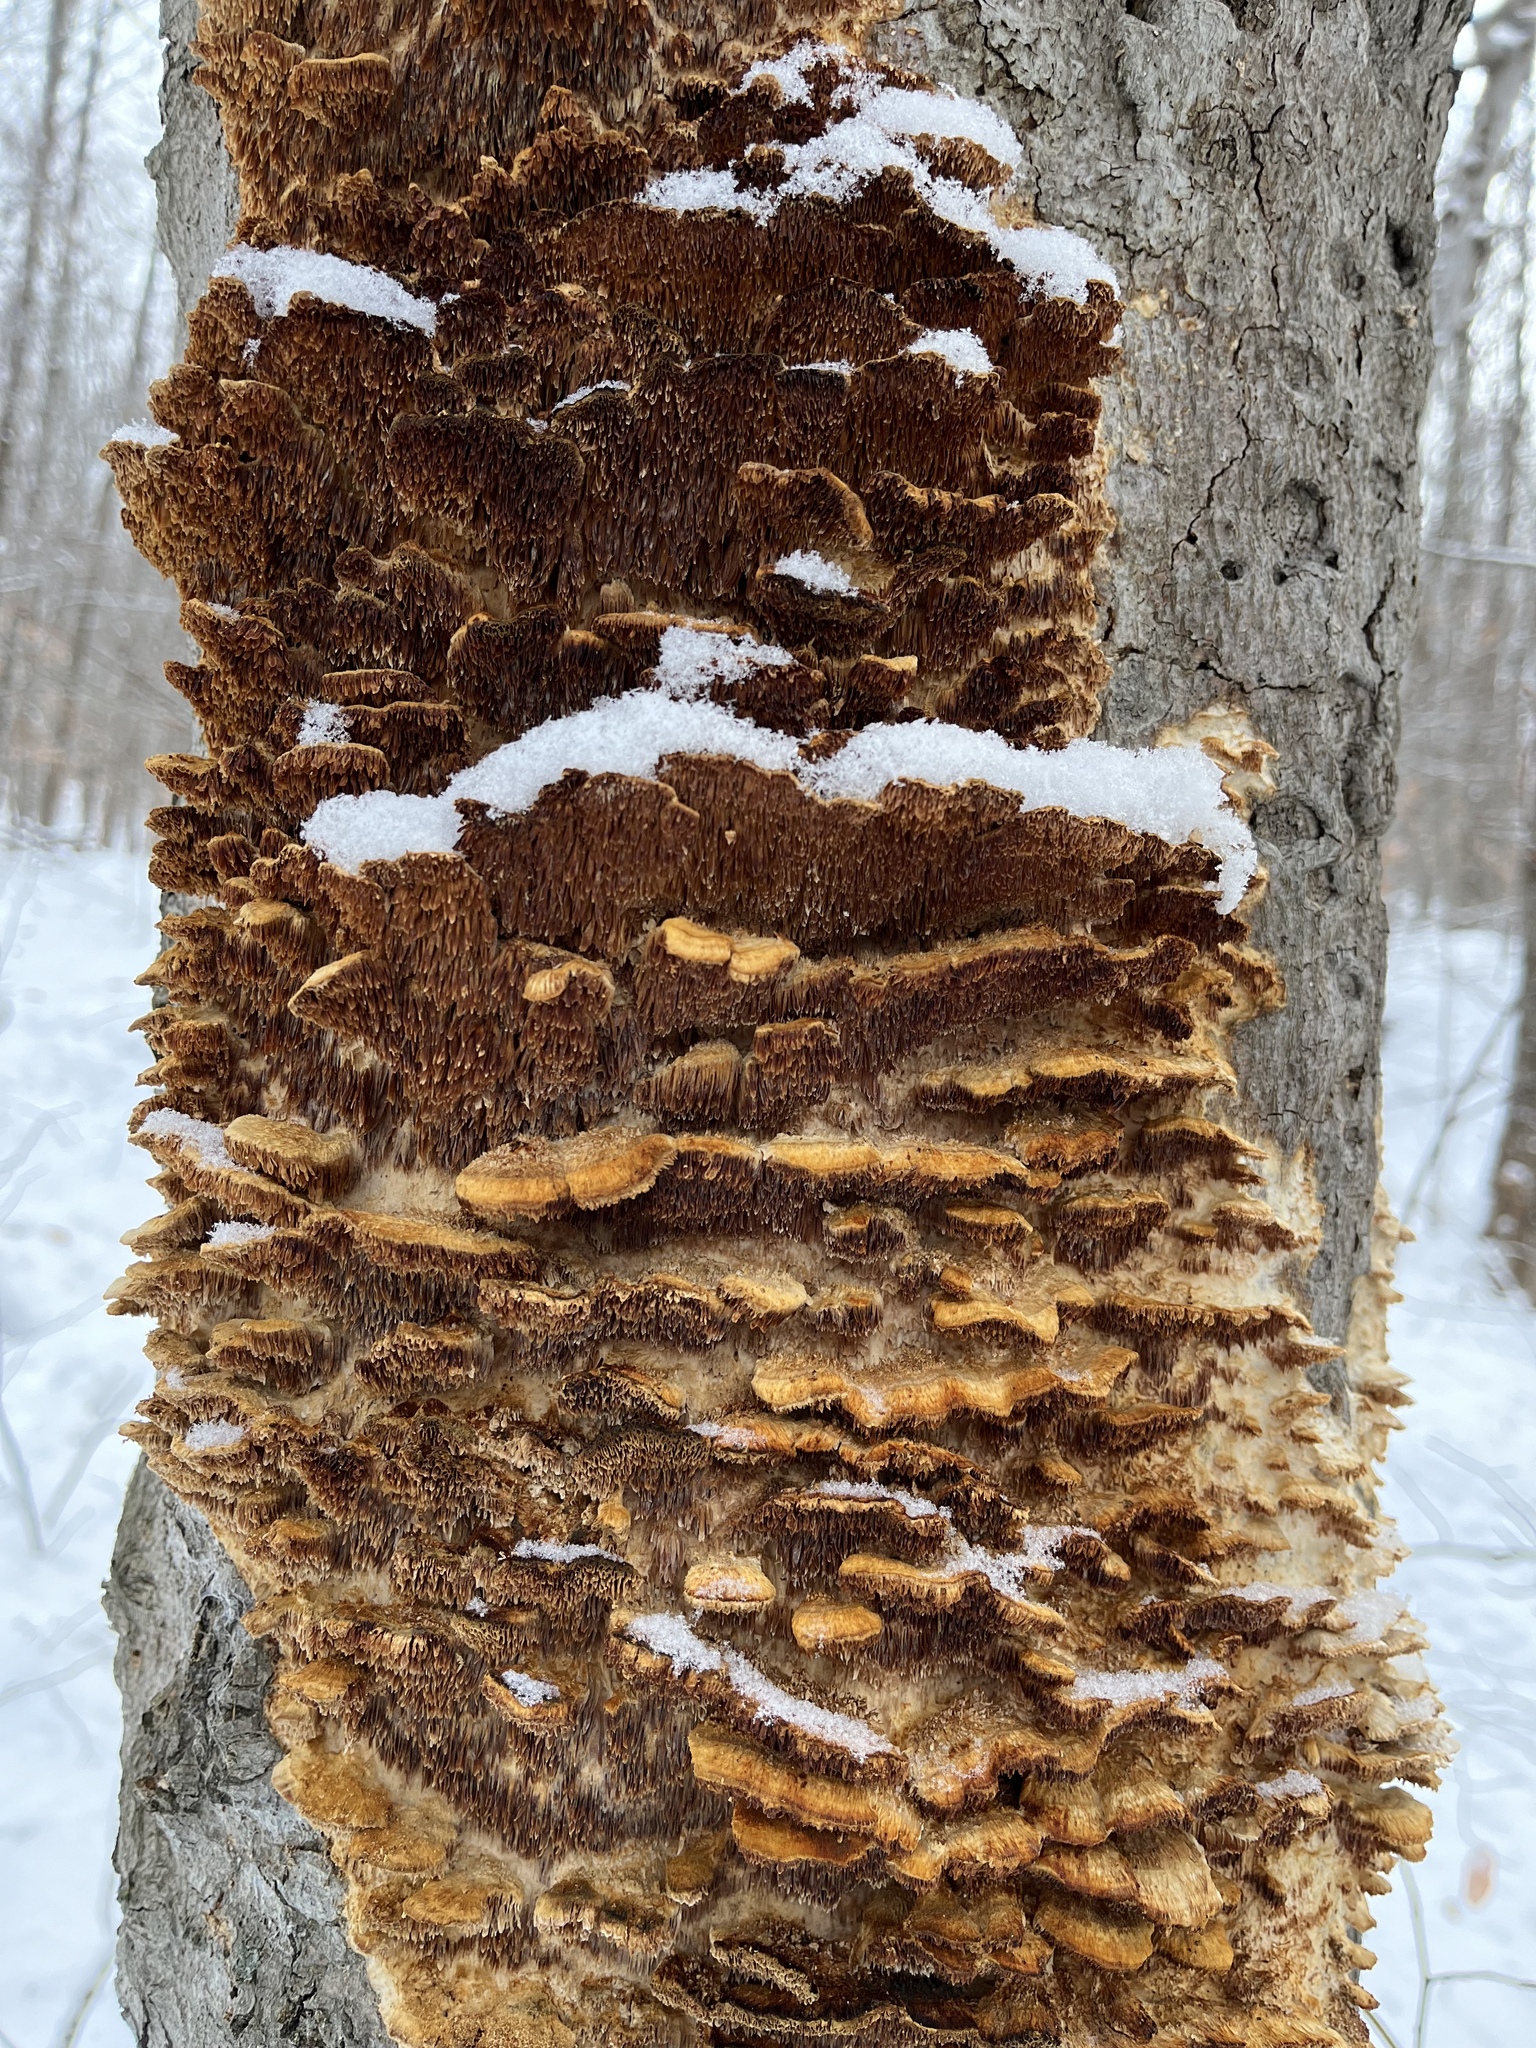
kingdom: Fungi
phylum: Basidiomycota
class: Agaricomycetes
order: Polyporales
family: Steccherinaceae
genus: Steccherinum
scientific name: Steccherinum ochraceum
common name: Ochre spreading tooth
